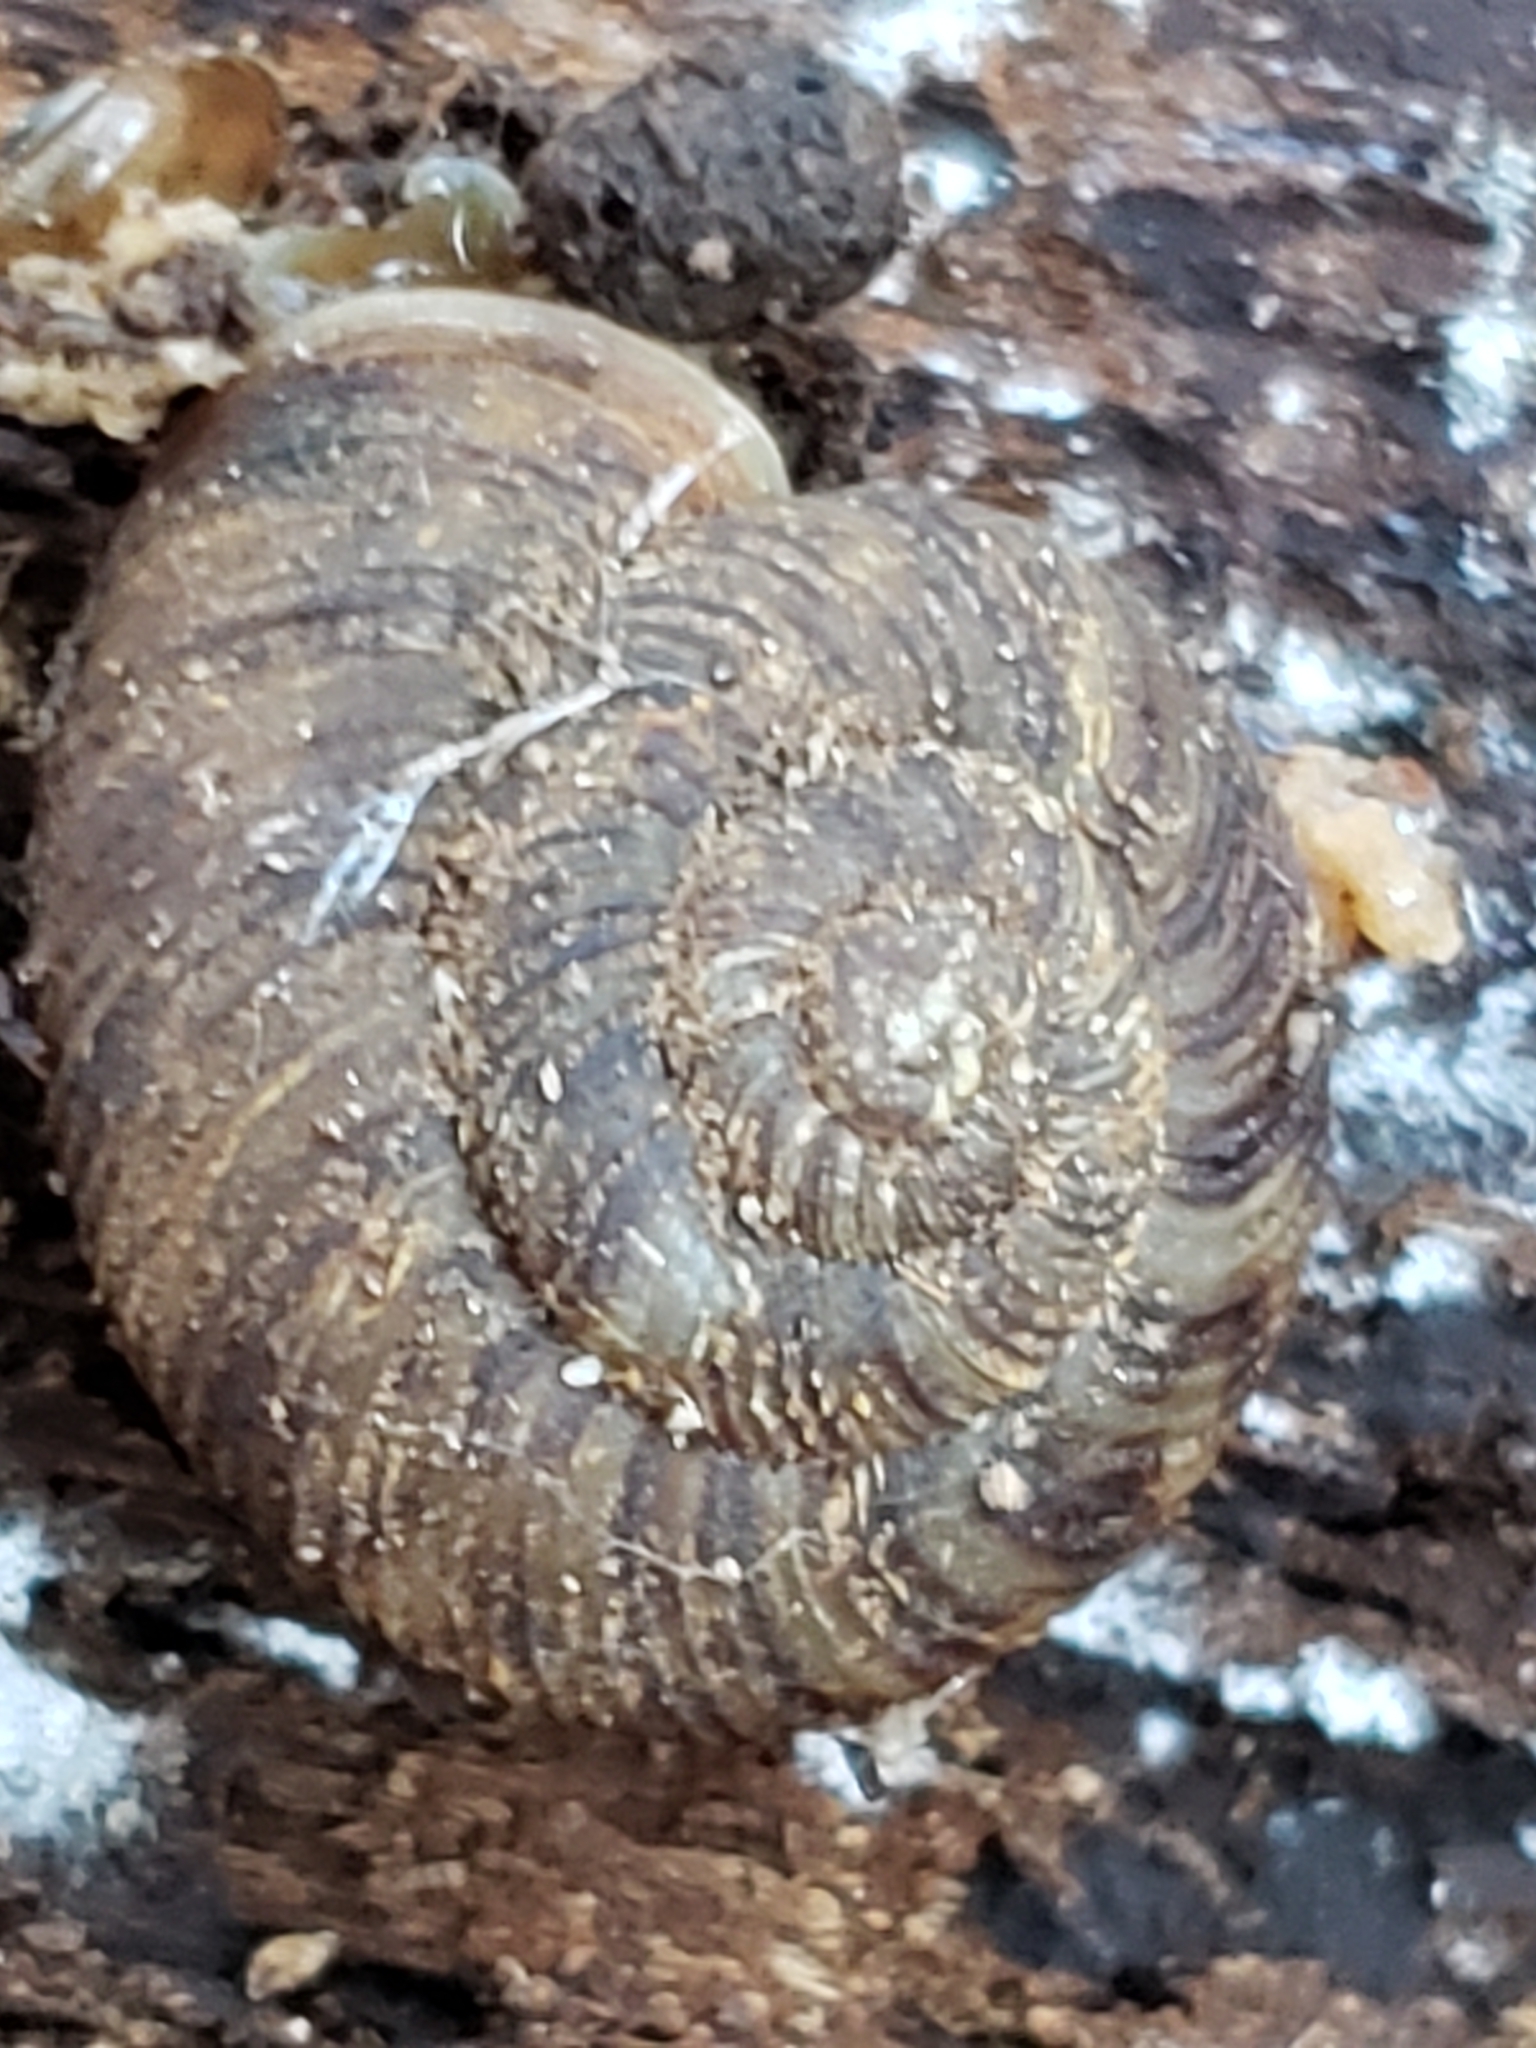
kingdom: Animalia
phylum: Mollusca
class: Gastropoda
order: Stylommatophora
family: Discidae
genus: Anguispira
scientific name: Anguispira alternata
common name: Flamed tigersnail
